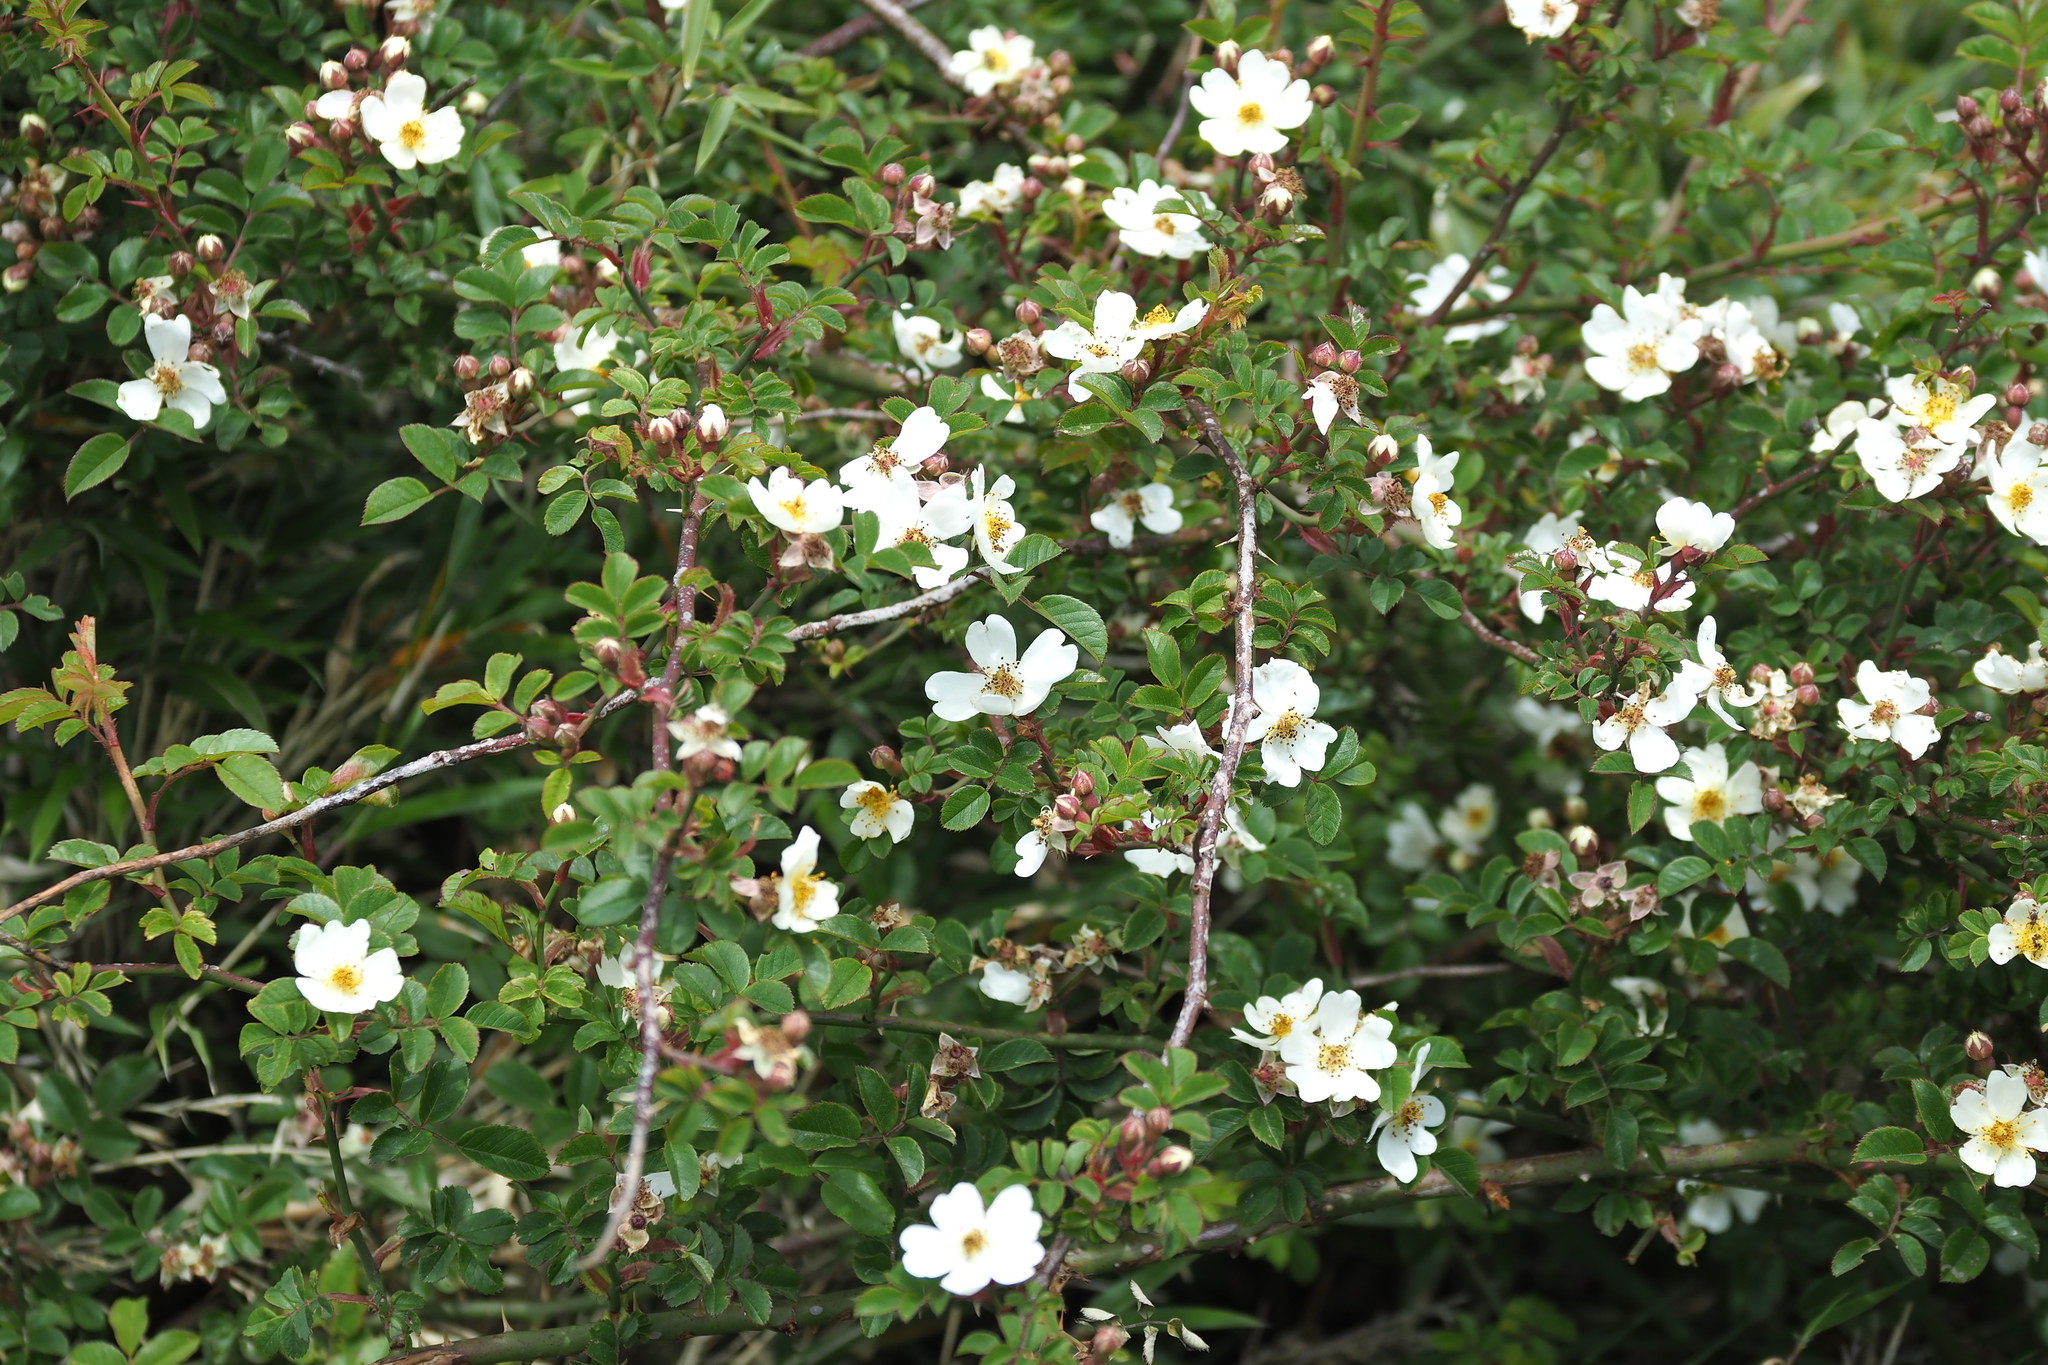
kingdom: Plantae
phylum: Tracheophyta
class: Magnoliopsida
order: Rosales
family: Rosaceae
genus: Rosa
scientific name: Rosa transmorrisonensis
